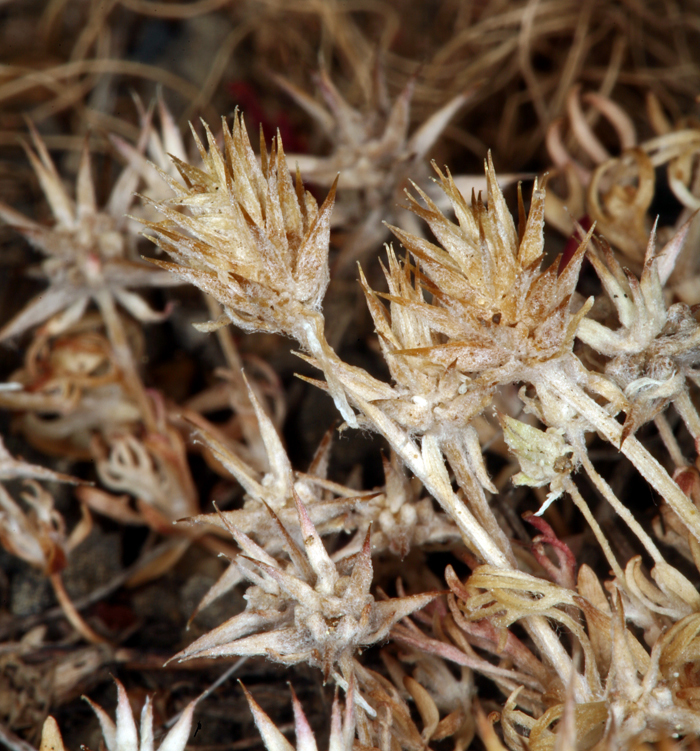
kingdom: Plantae
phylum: Tracheophyta
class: Magnoliopsida
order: Ranunculales
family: Ranunculaceae
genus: Ceratocephala
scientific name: Ceratocephala orthoceras
